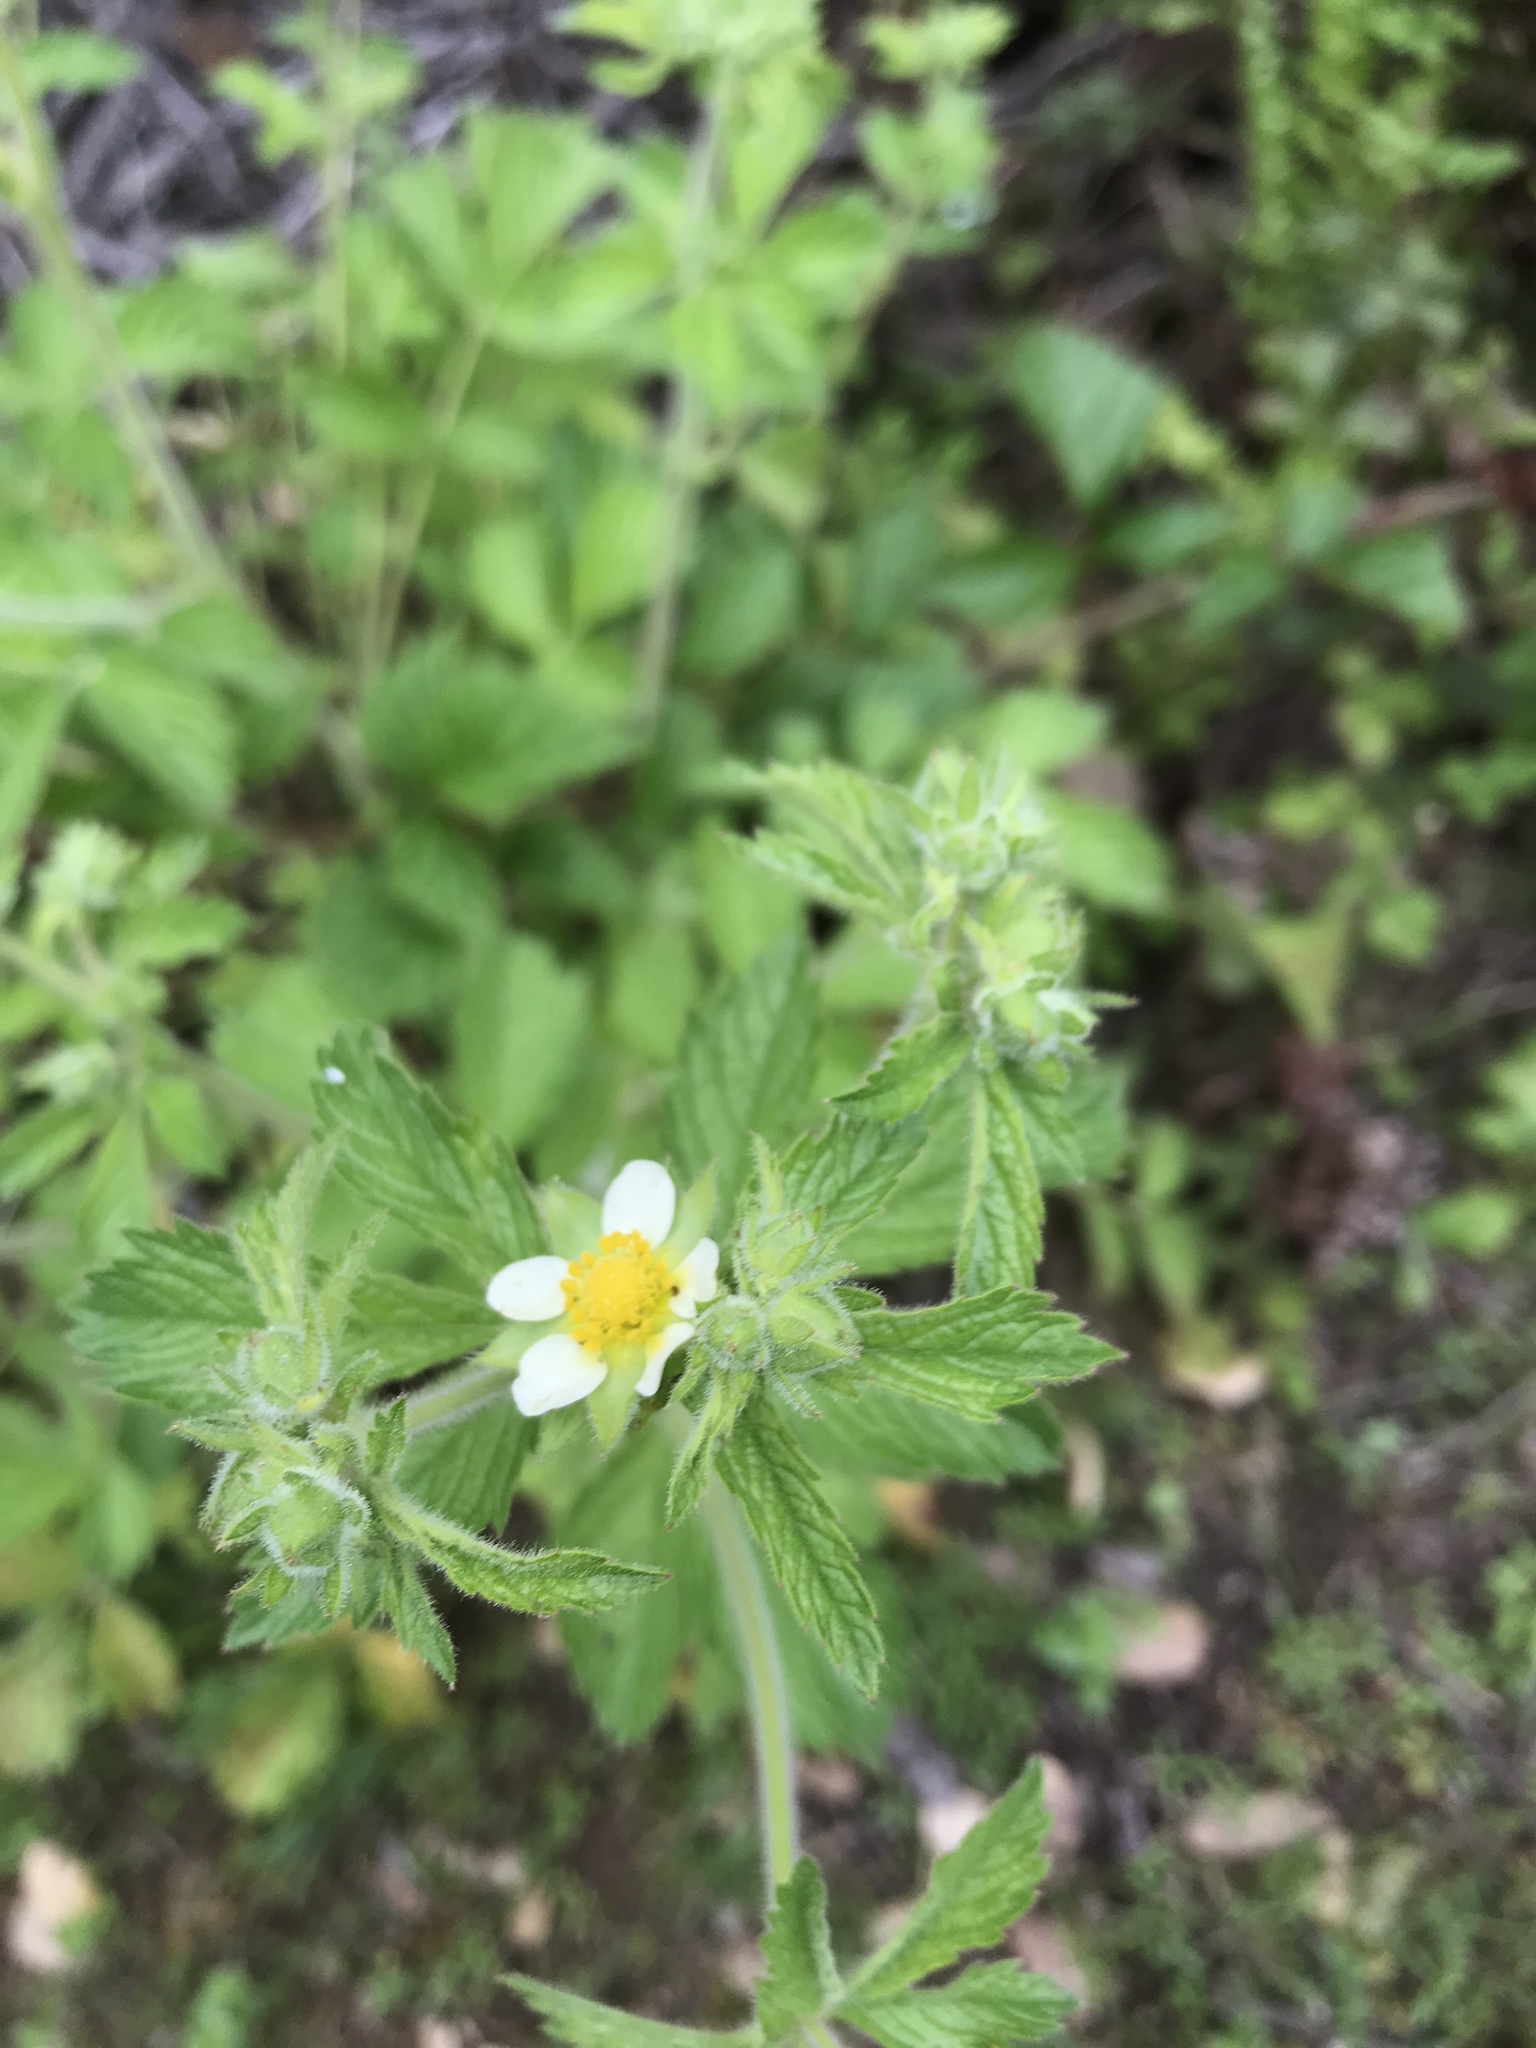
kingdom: Plantae
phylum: Tracheophyta
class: Magnoliopsida
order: Rosales
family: Rosaceae
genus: Drymocallis
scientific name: Drymocallis glandulosa
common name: Sticky cinquefoil
